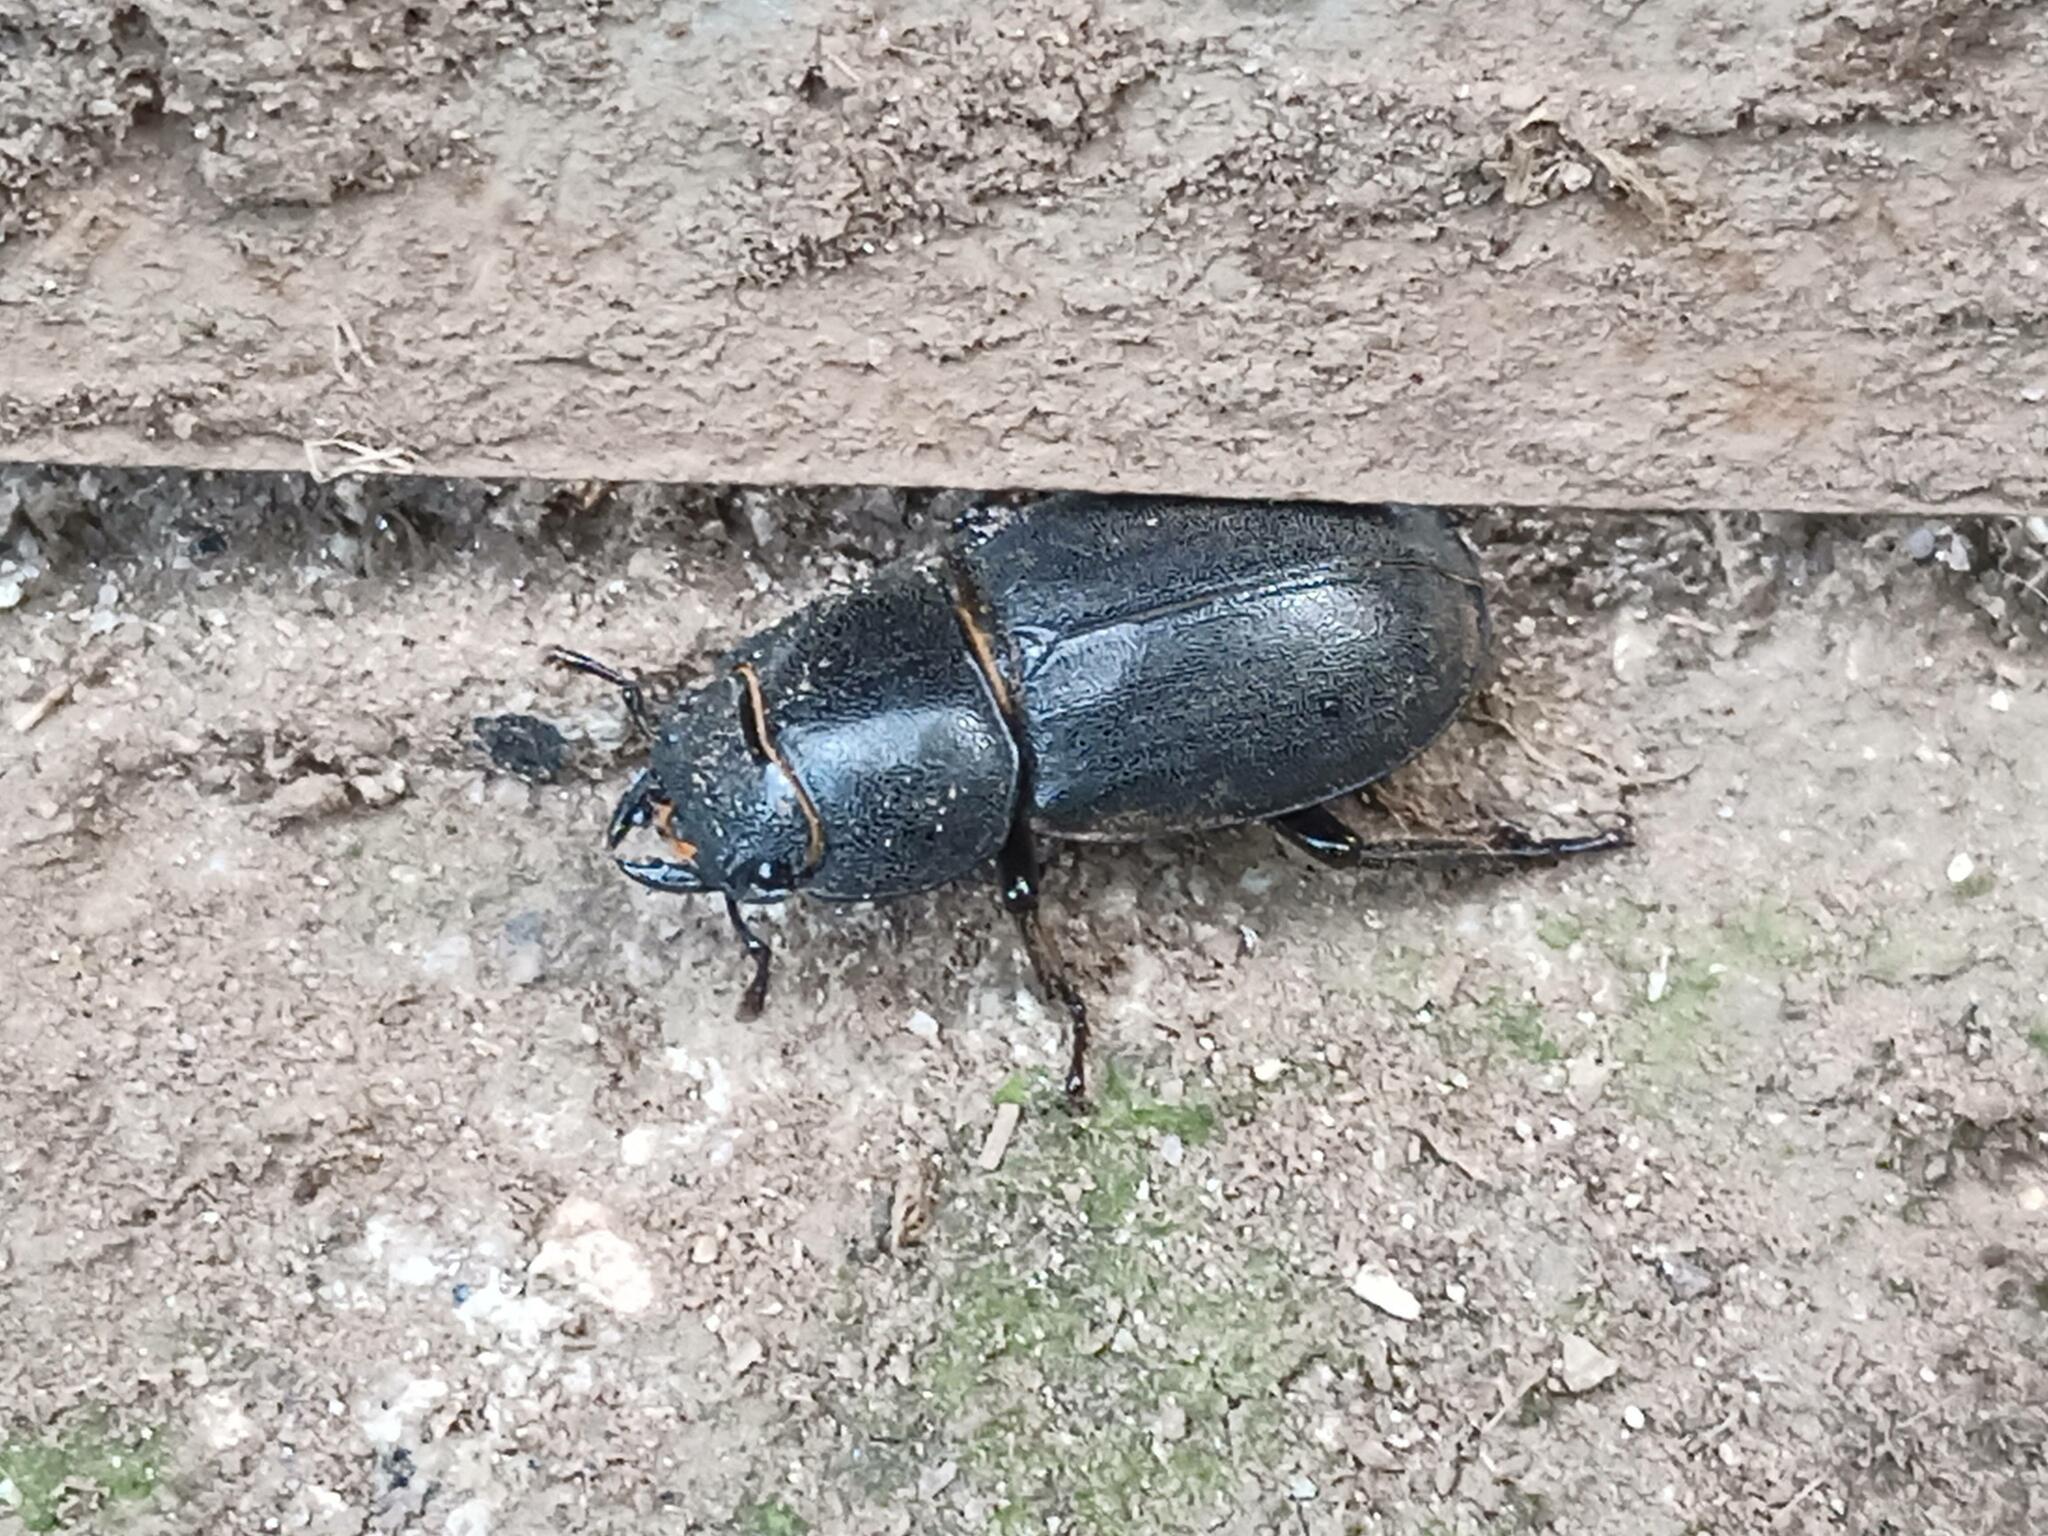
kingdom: Animalia
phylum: Arthropoda
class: Insecta
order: Coleoptera
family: Lucanidae
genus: Dorcus
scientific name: Dorcus parallelipipedus
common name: Lesser stag beetle
